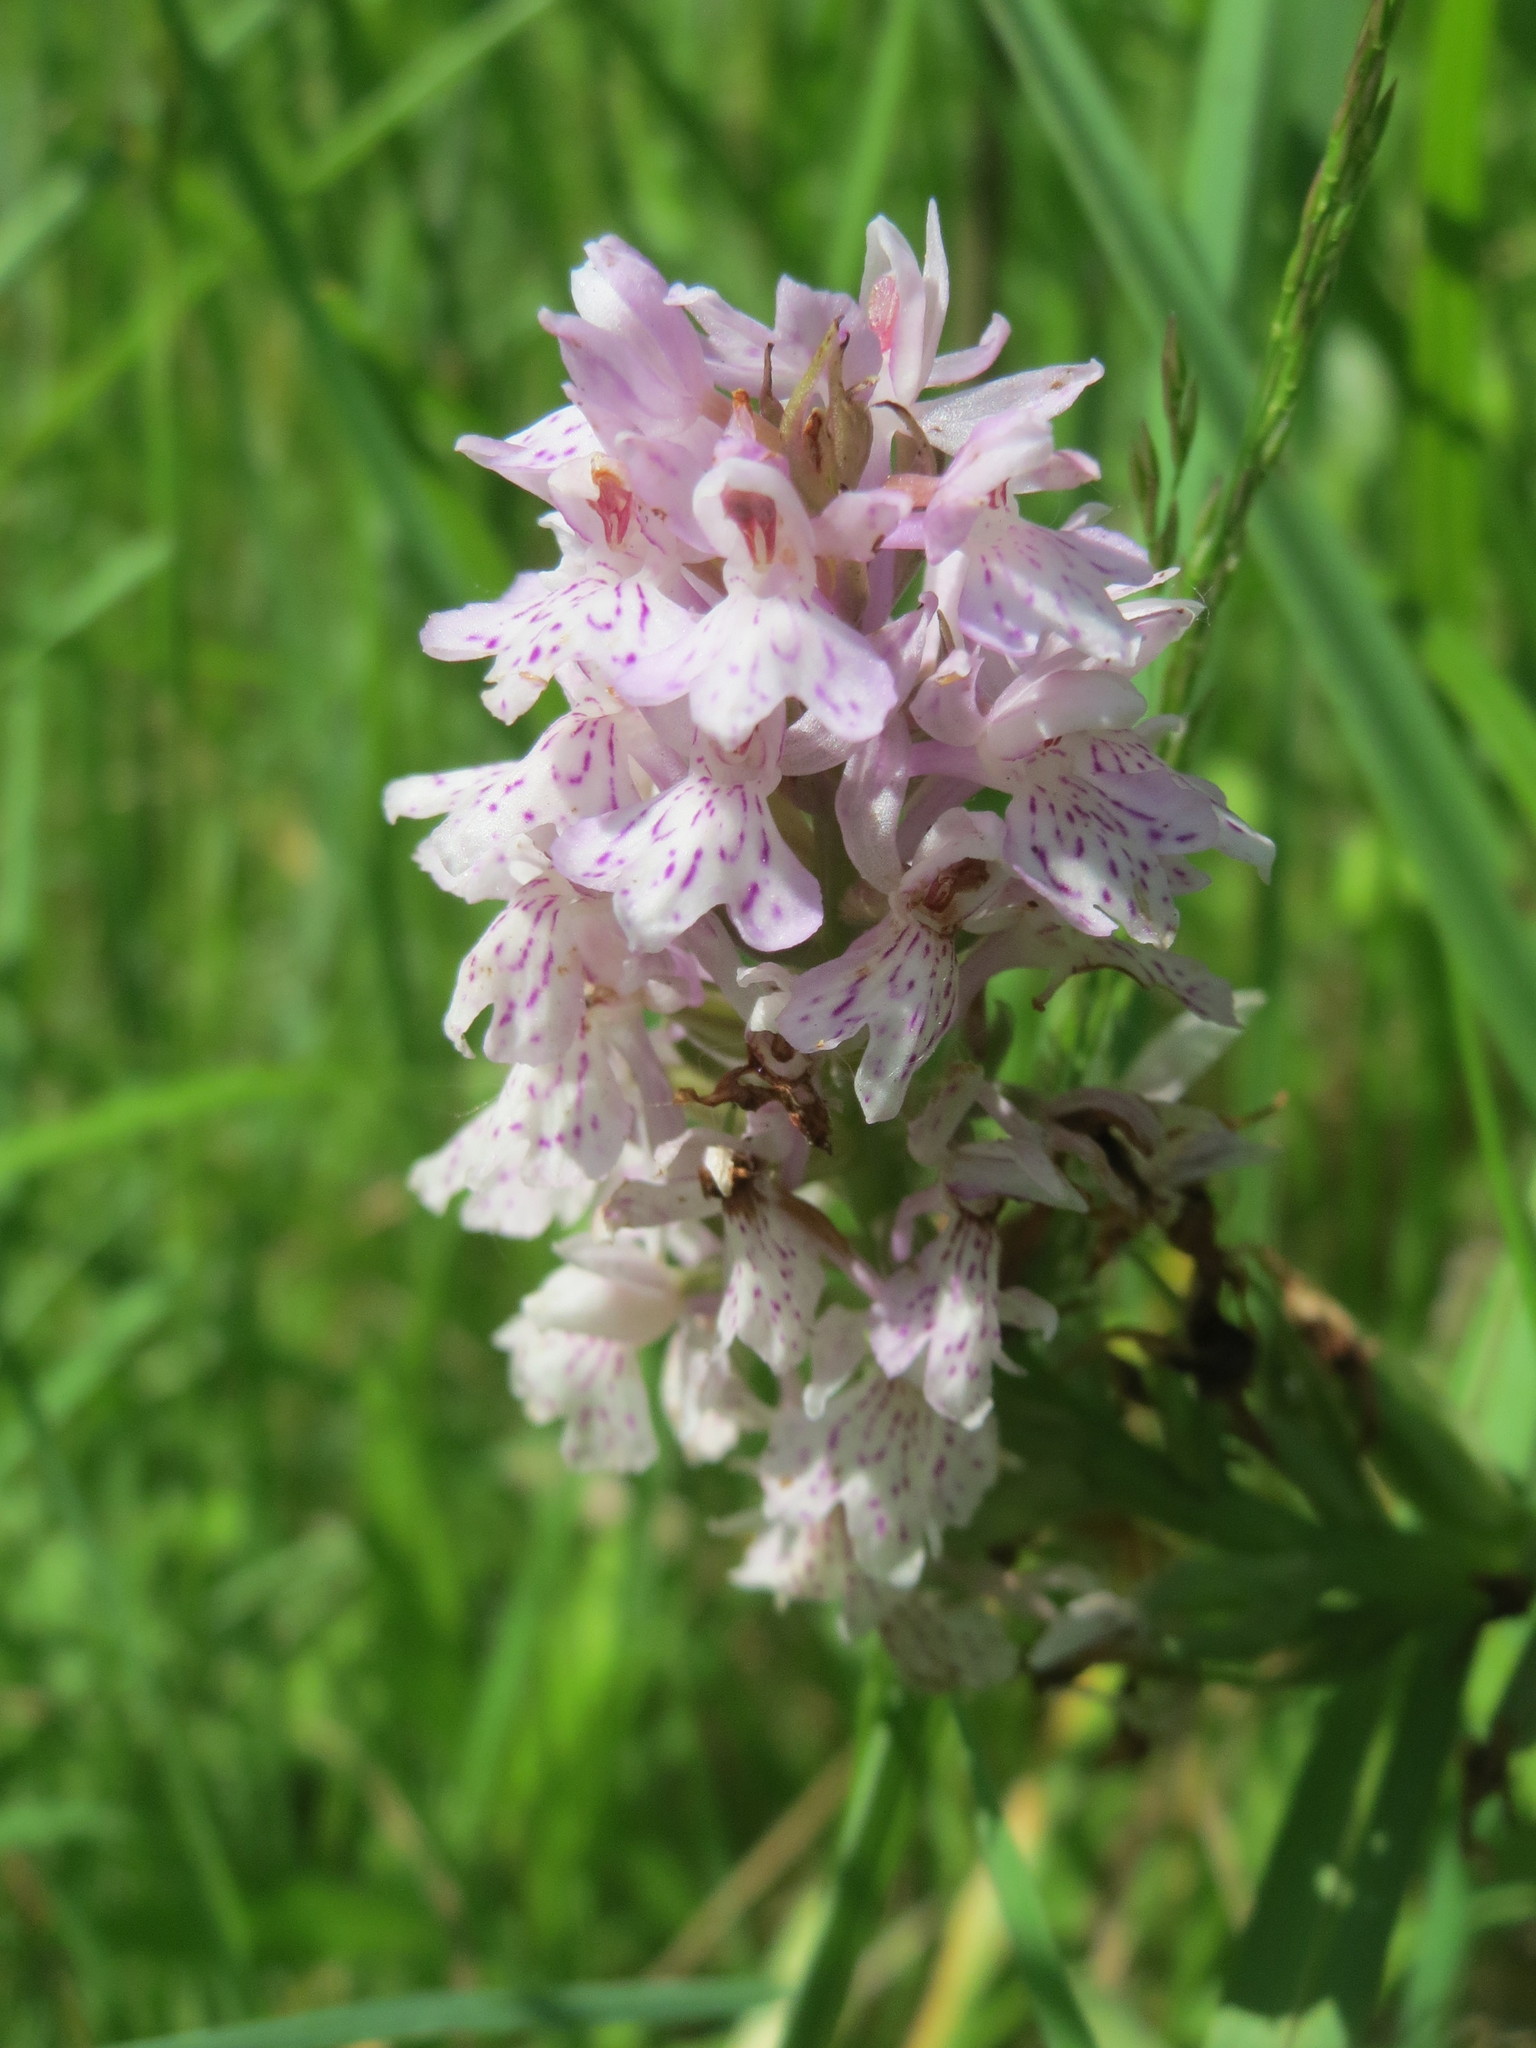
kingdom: Plantae
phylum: Tracheophyta
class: Liliopsida
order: Asparagales
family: Orchidaceae
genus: Dactylorhiza
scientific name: Dactylorhiza maculata
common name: Heath spotted-orchid
